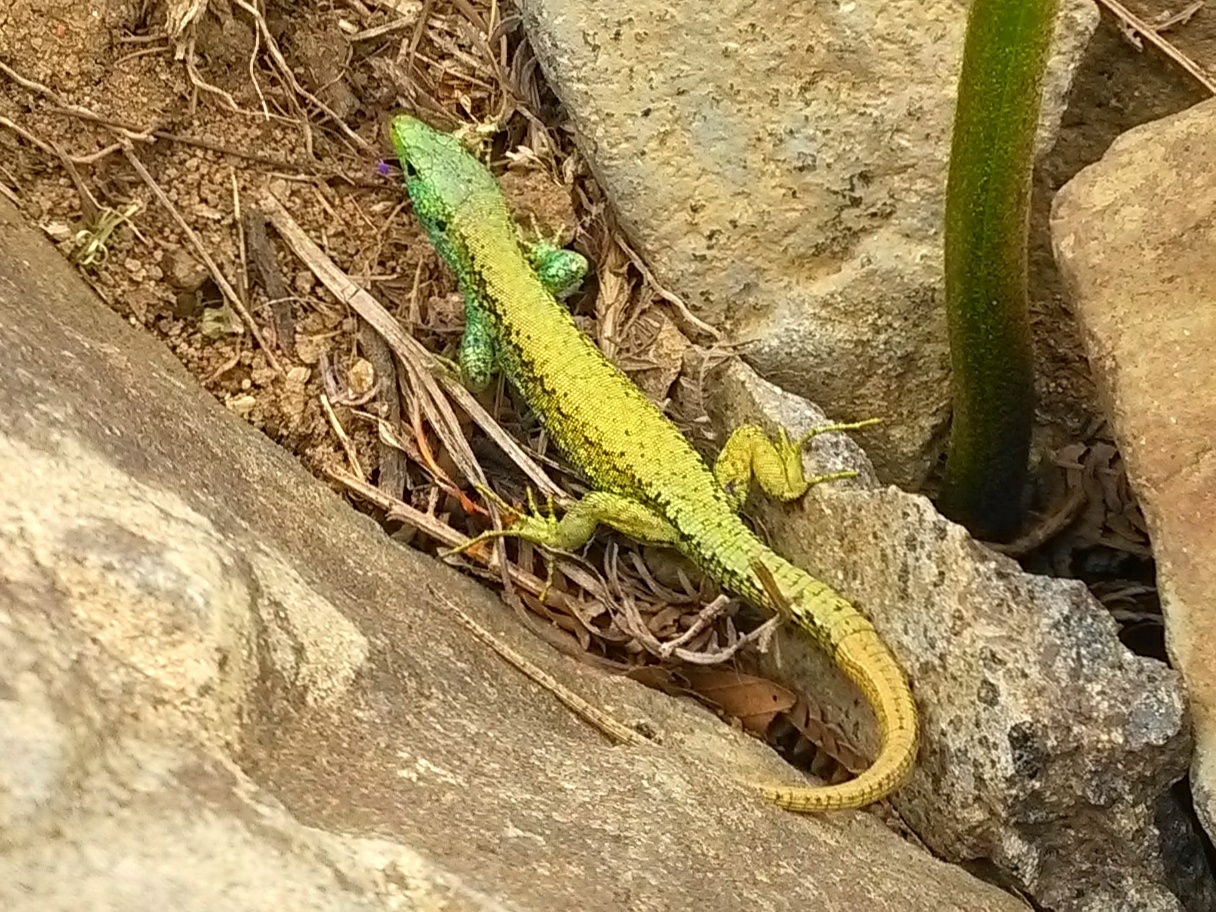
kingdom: Animalia
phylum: Chordata
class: Squamata
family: Lacertidae
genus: Darevskia
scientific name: Darevskia chlorogaster
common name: Green-bellied lizard
